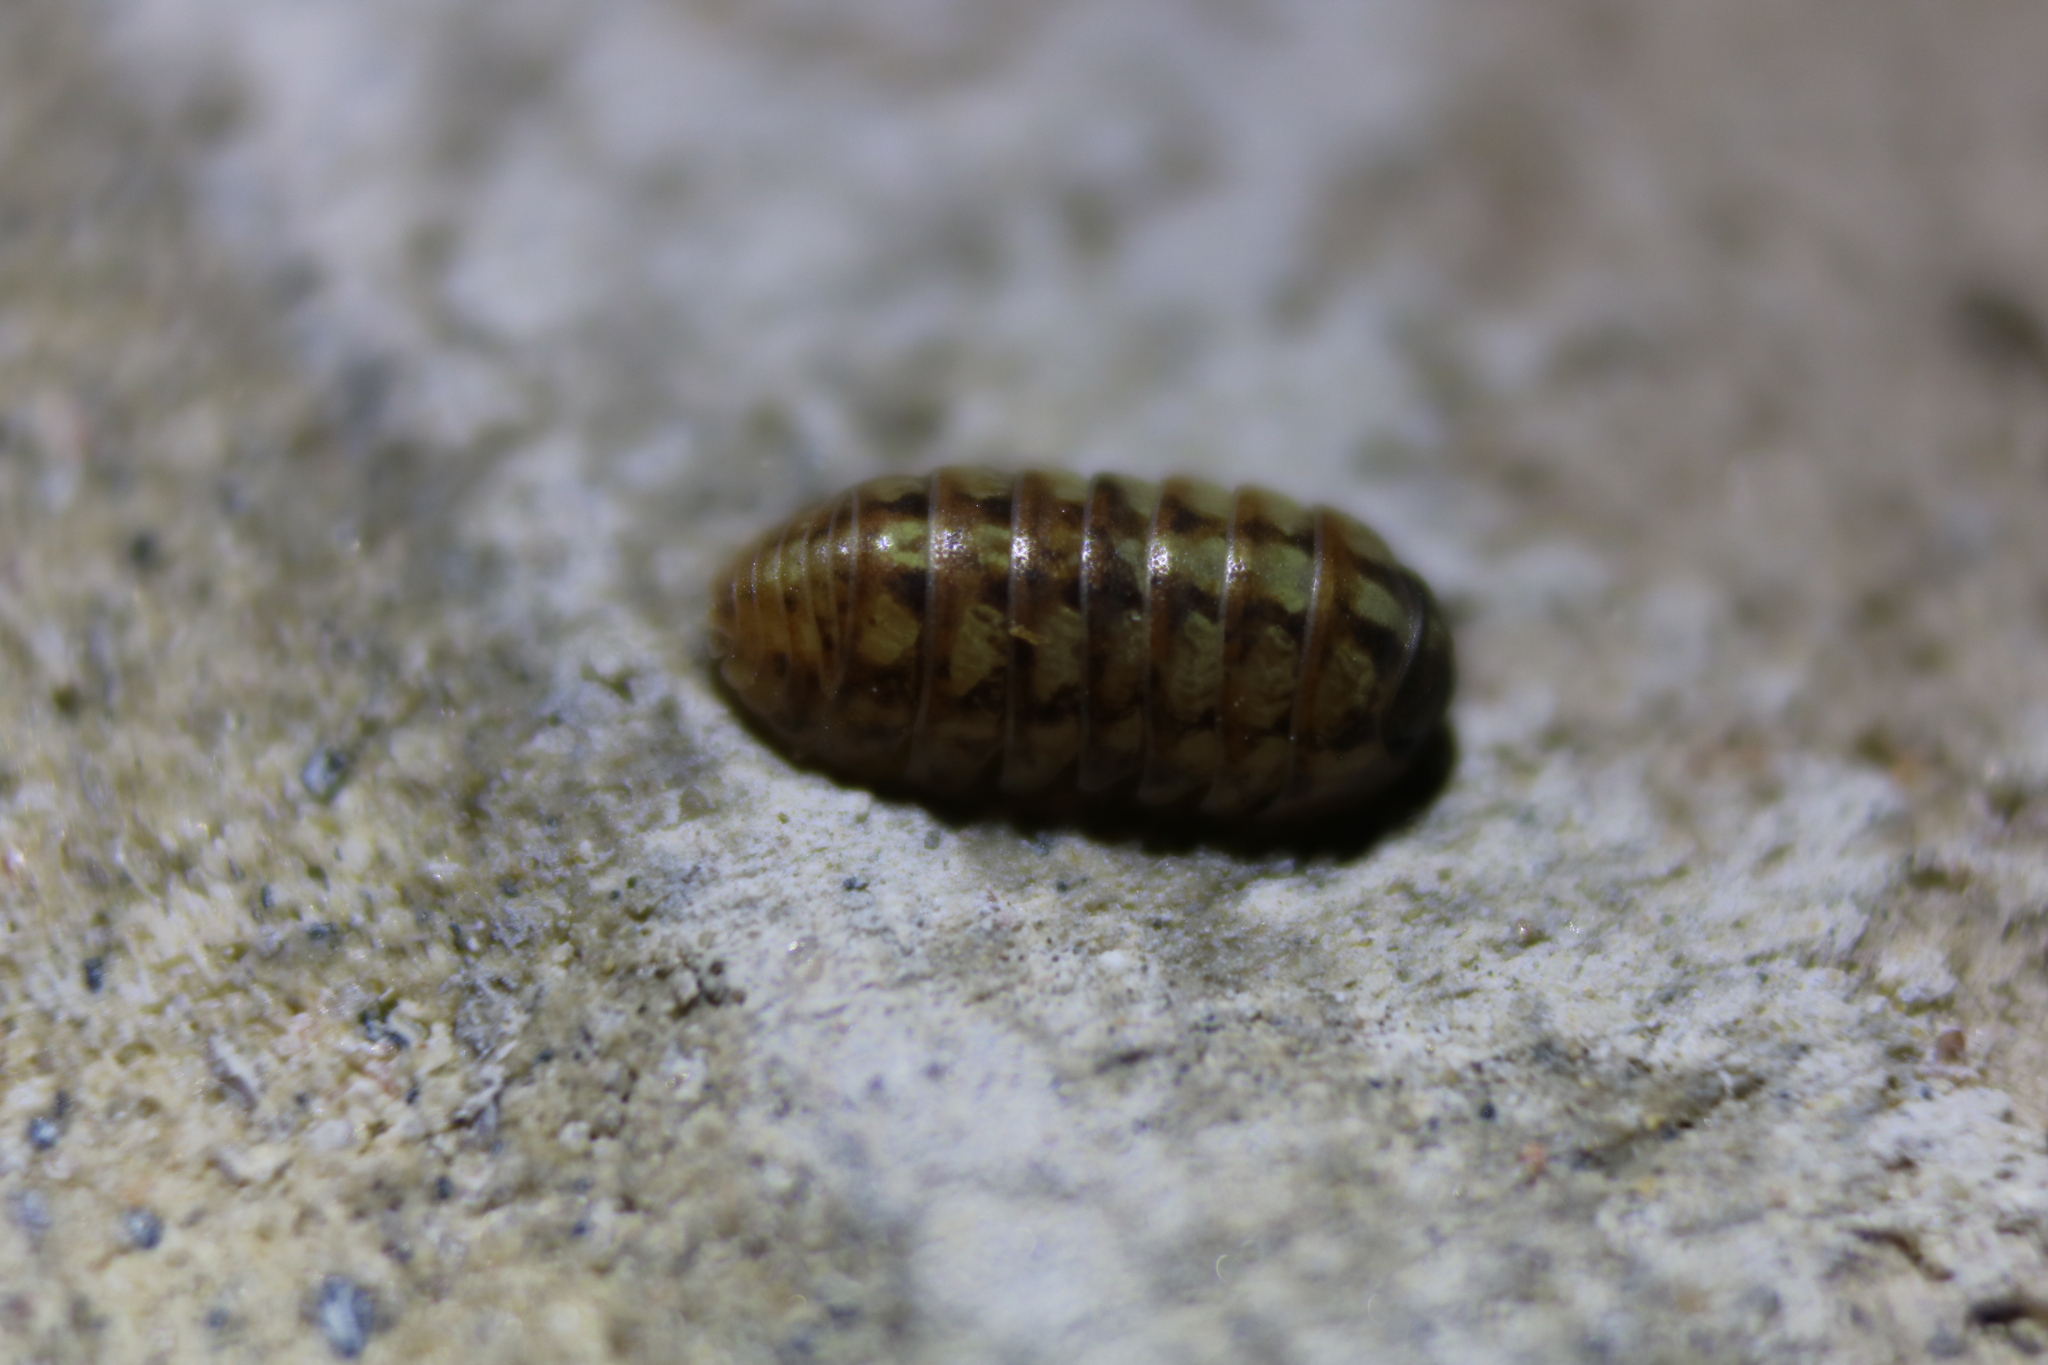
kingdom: Animalia
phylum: Arthropoda
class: Malacostraca
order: Isopoda
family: Armadillidiidae
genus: Armadillidium
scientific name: Armadillidium vulgare
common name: Common pill woodlouse
